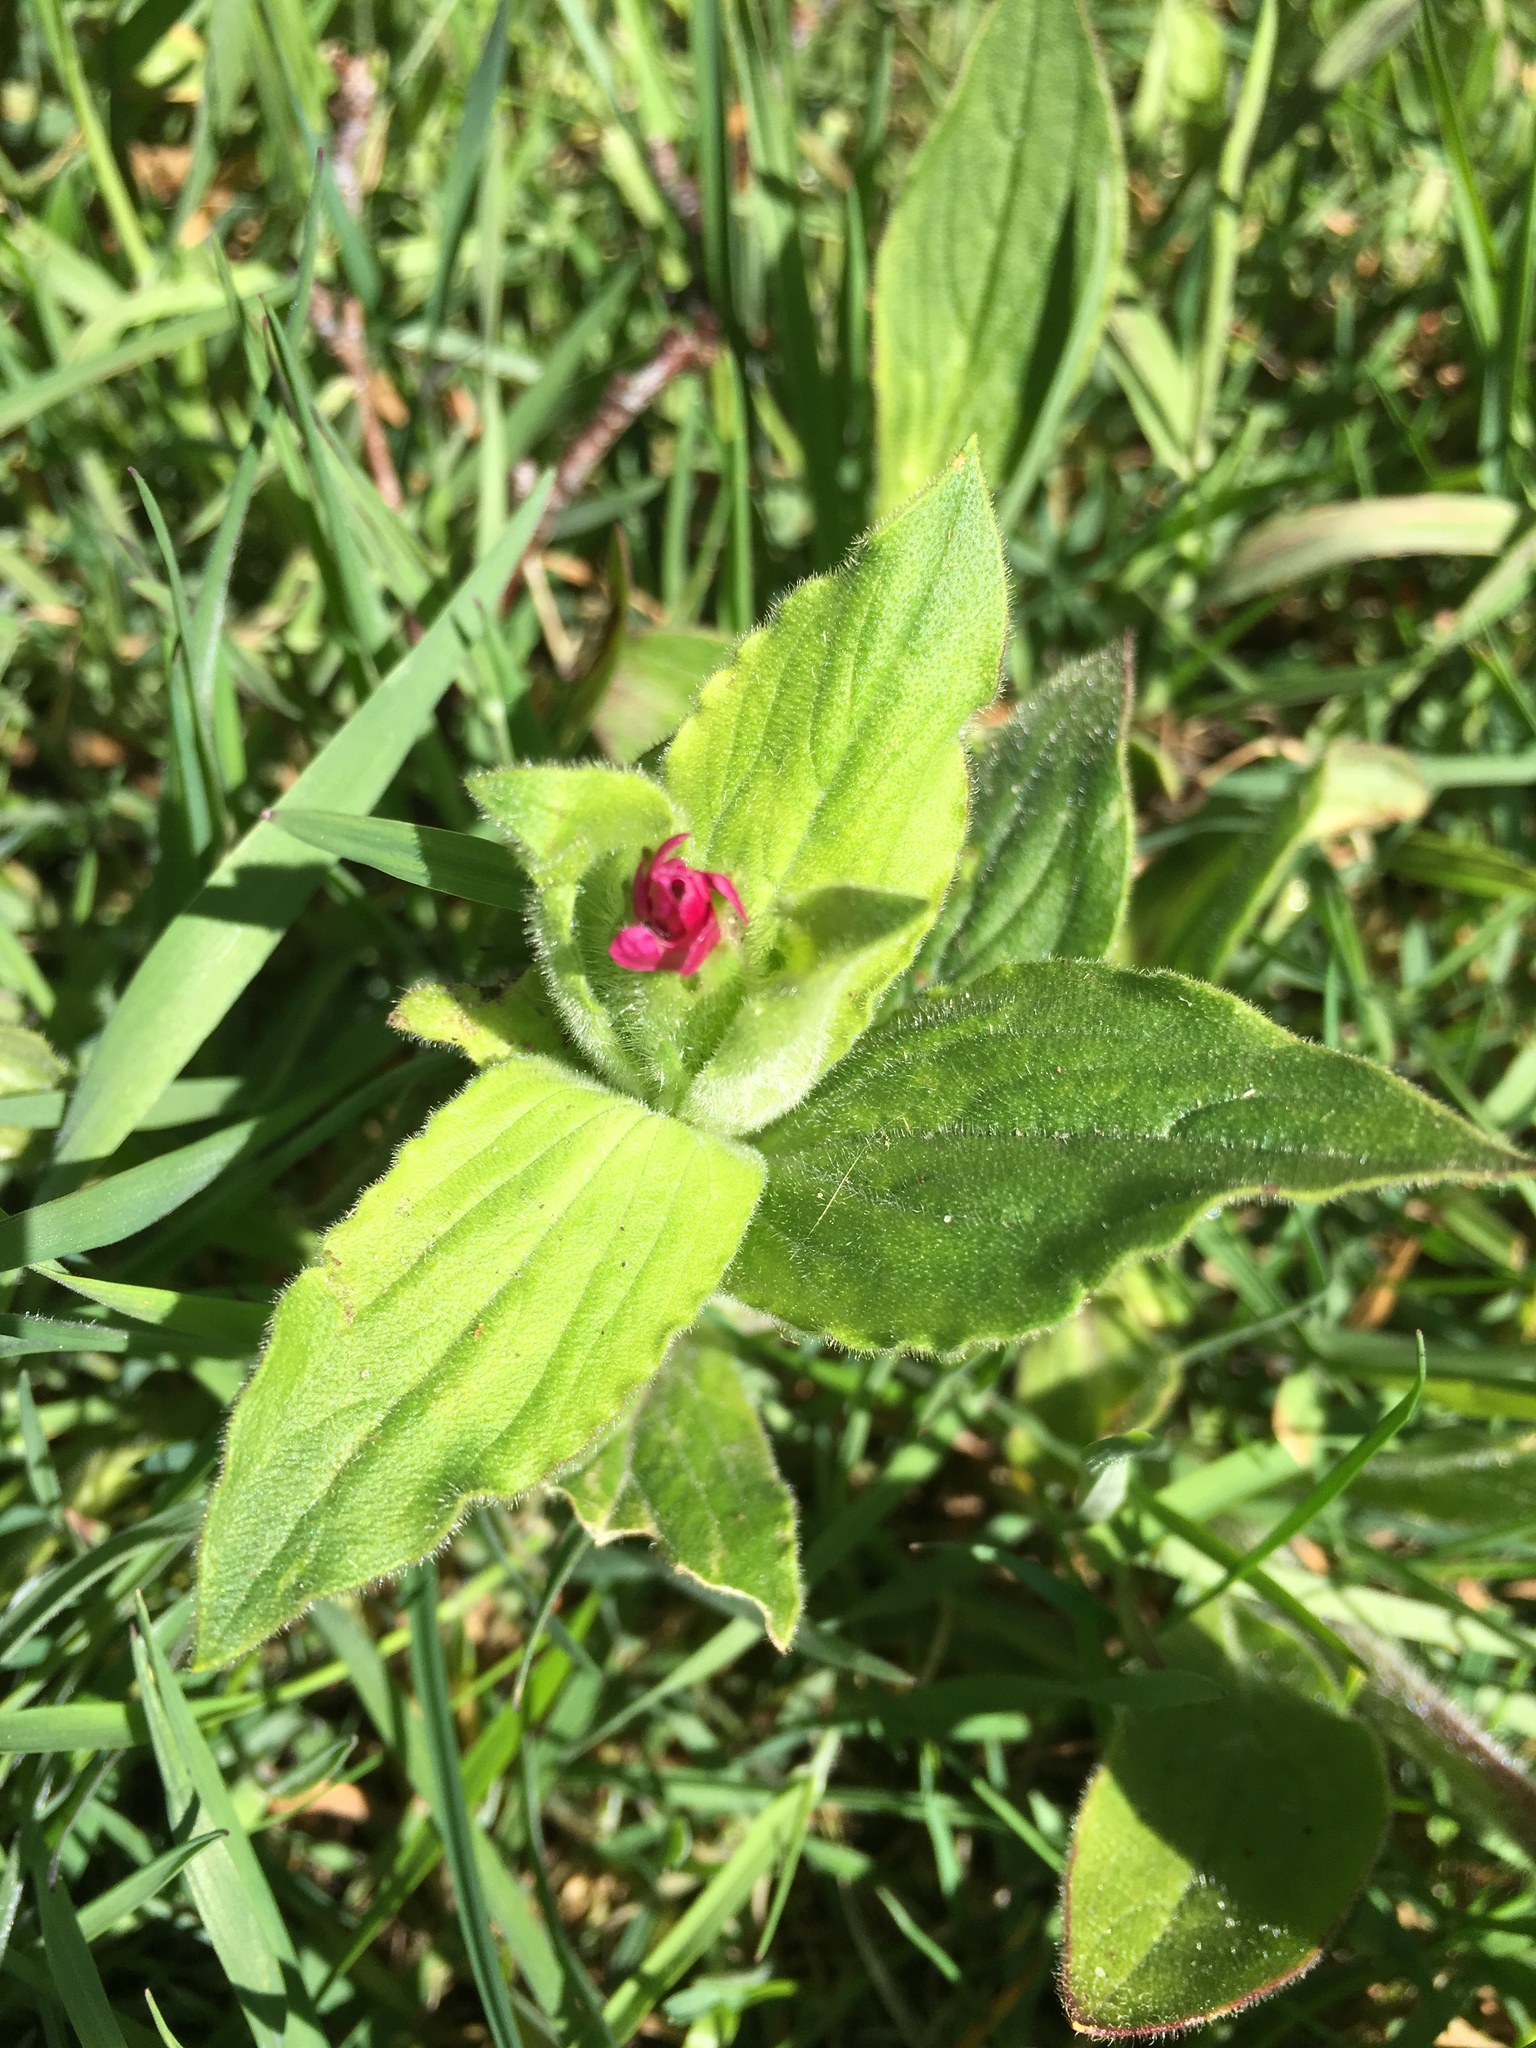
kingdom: Plantae
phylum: Tracheophyta
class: Magnoliopsida
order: Caryophyllales
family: Caryophyllaceae
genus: Silene
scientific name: Silene dioica
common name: Red campion
